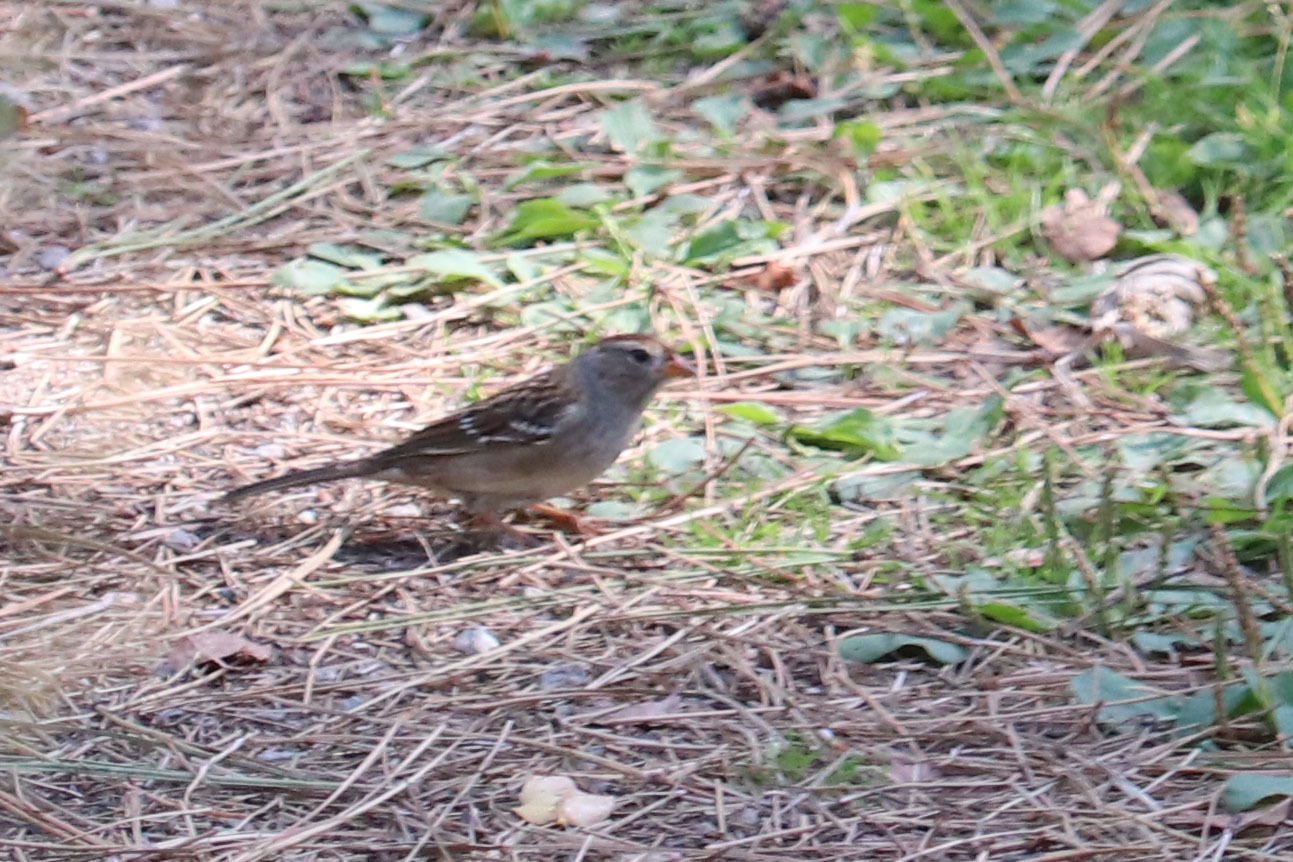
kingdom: Animalia
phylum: Chordata
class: Aves
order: Passeriformes
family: Passerellidae
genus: Zonotrichia
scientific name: Zonotrichia leucophrys
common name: White-crowned sparrow
